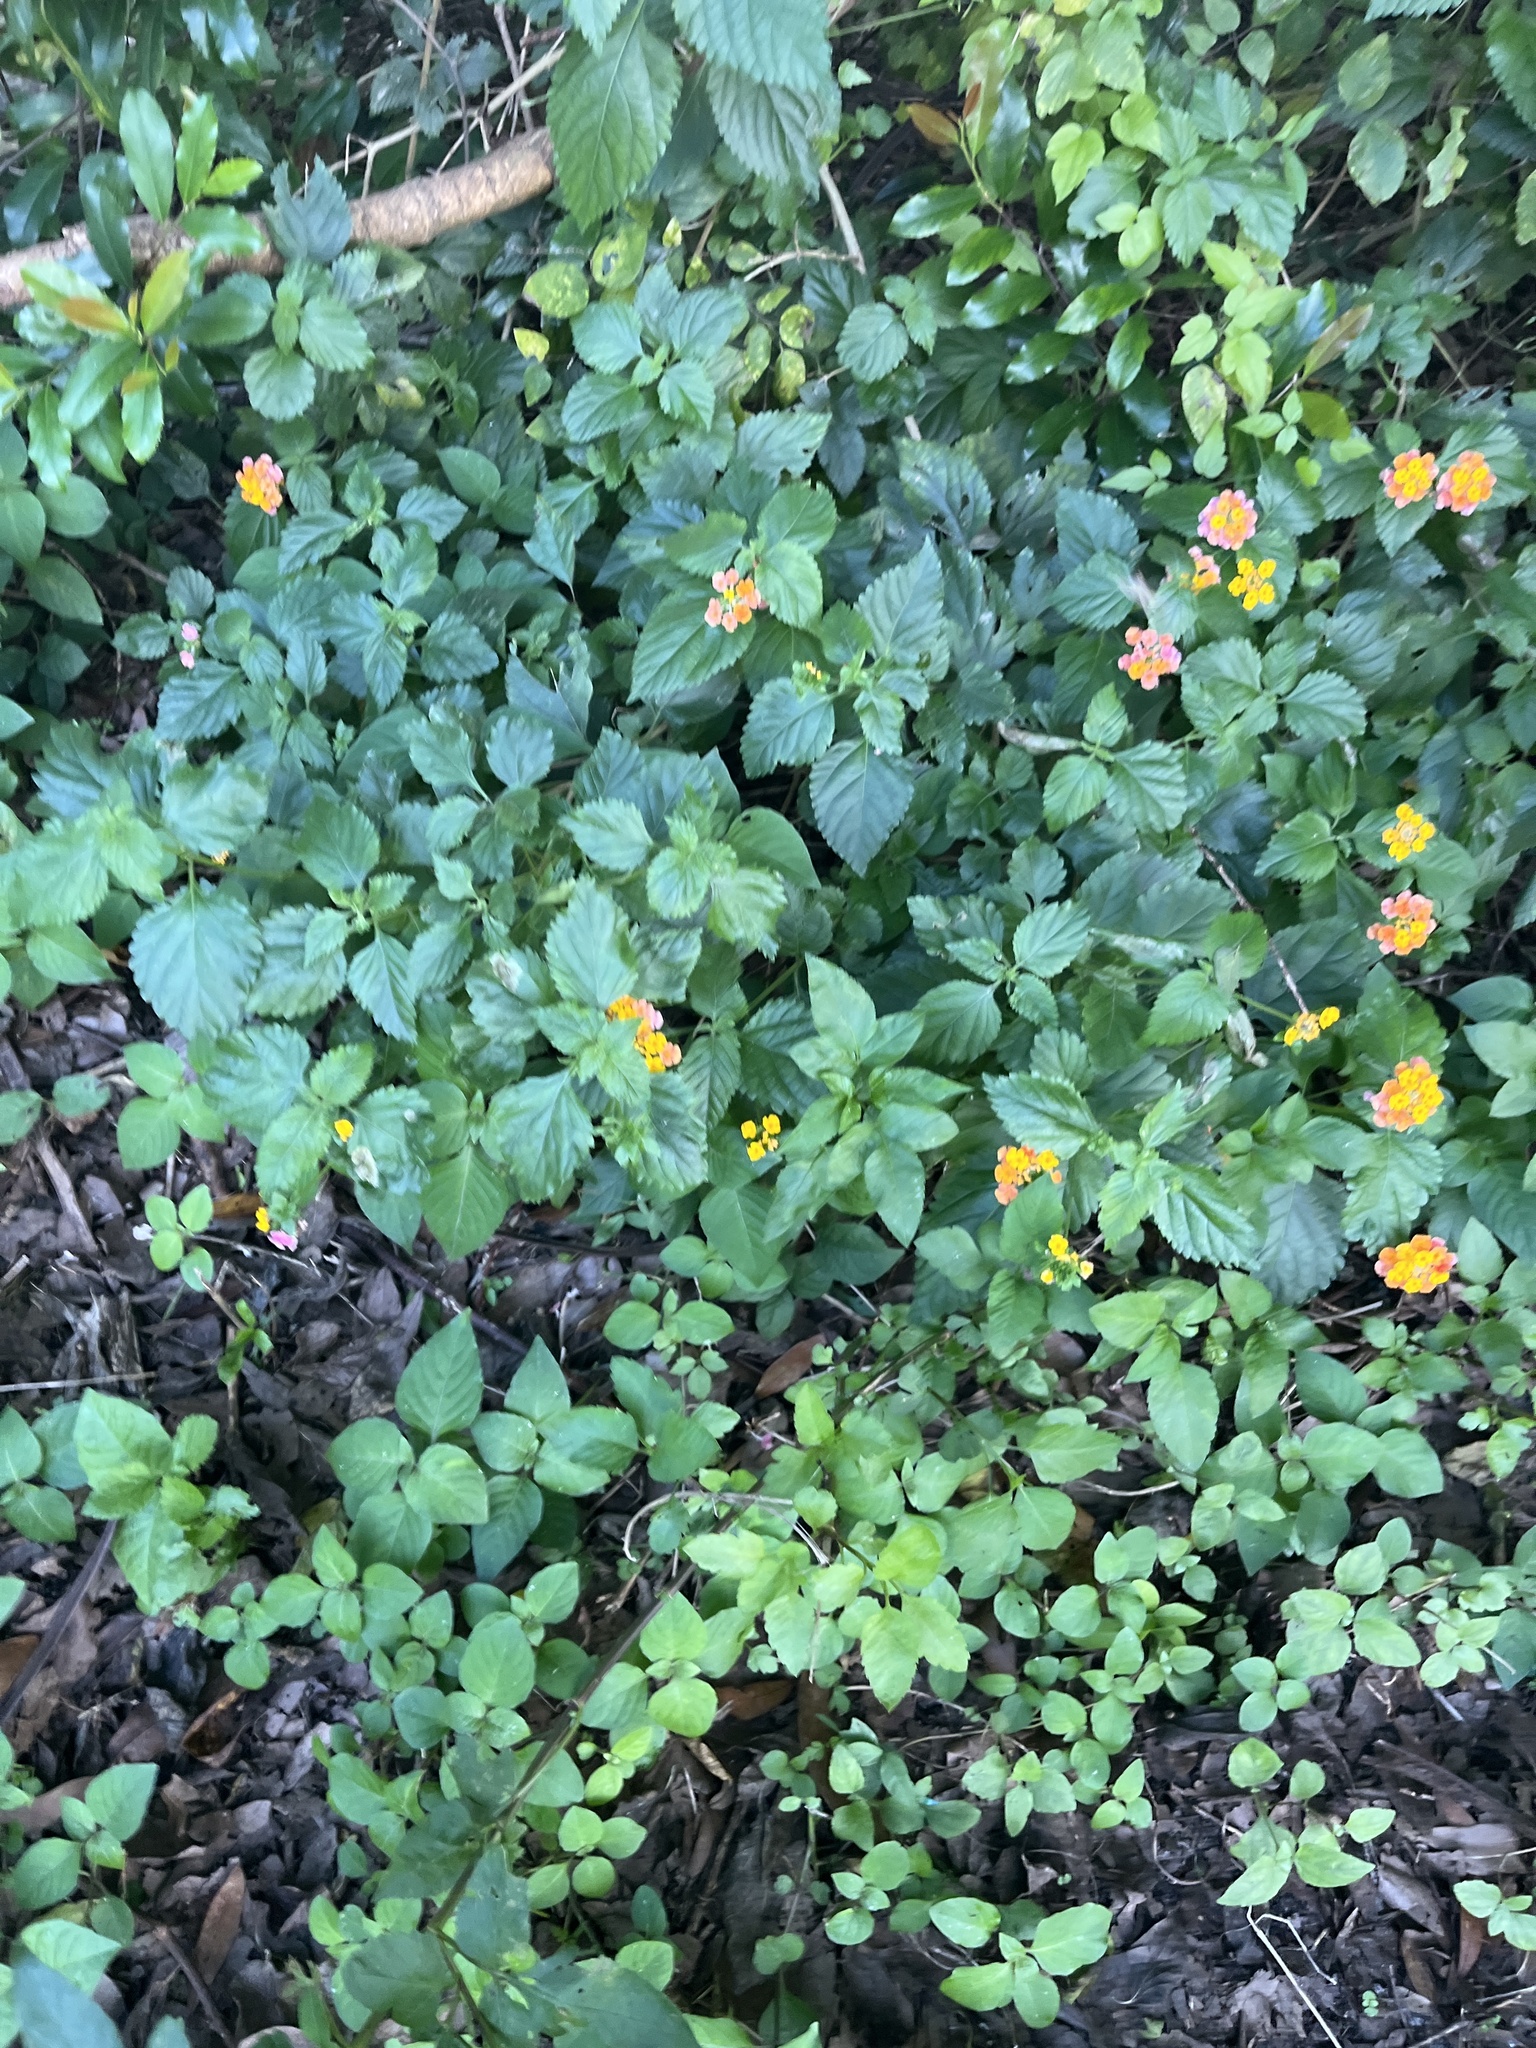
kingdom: Plantae
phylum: Tracheophyta
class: Magnoliopsida
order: Lamiales
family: Verbenaceae
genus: Lantana
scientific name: Lantana strigocamara
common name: Lantana
